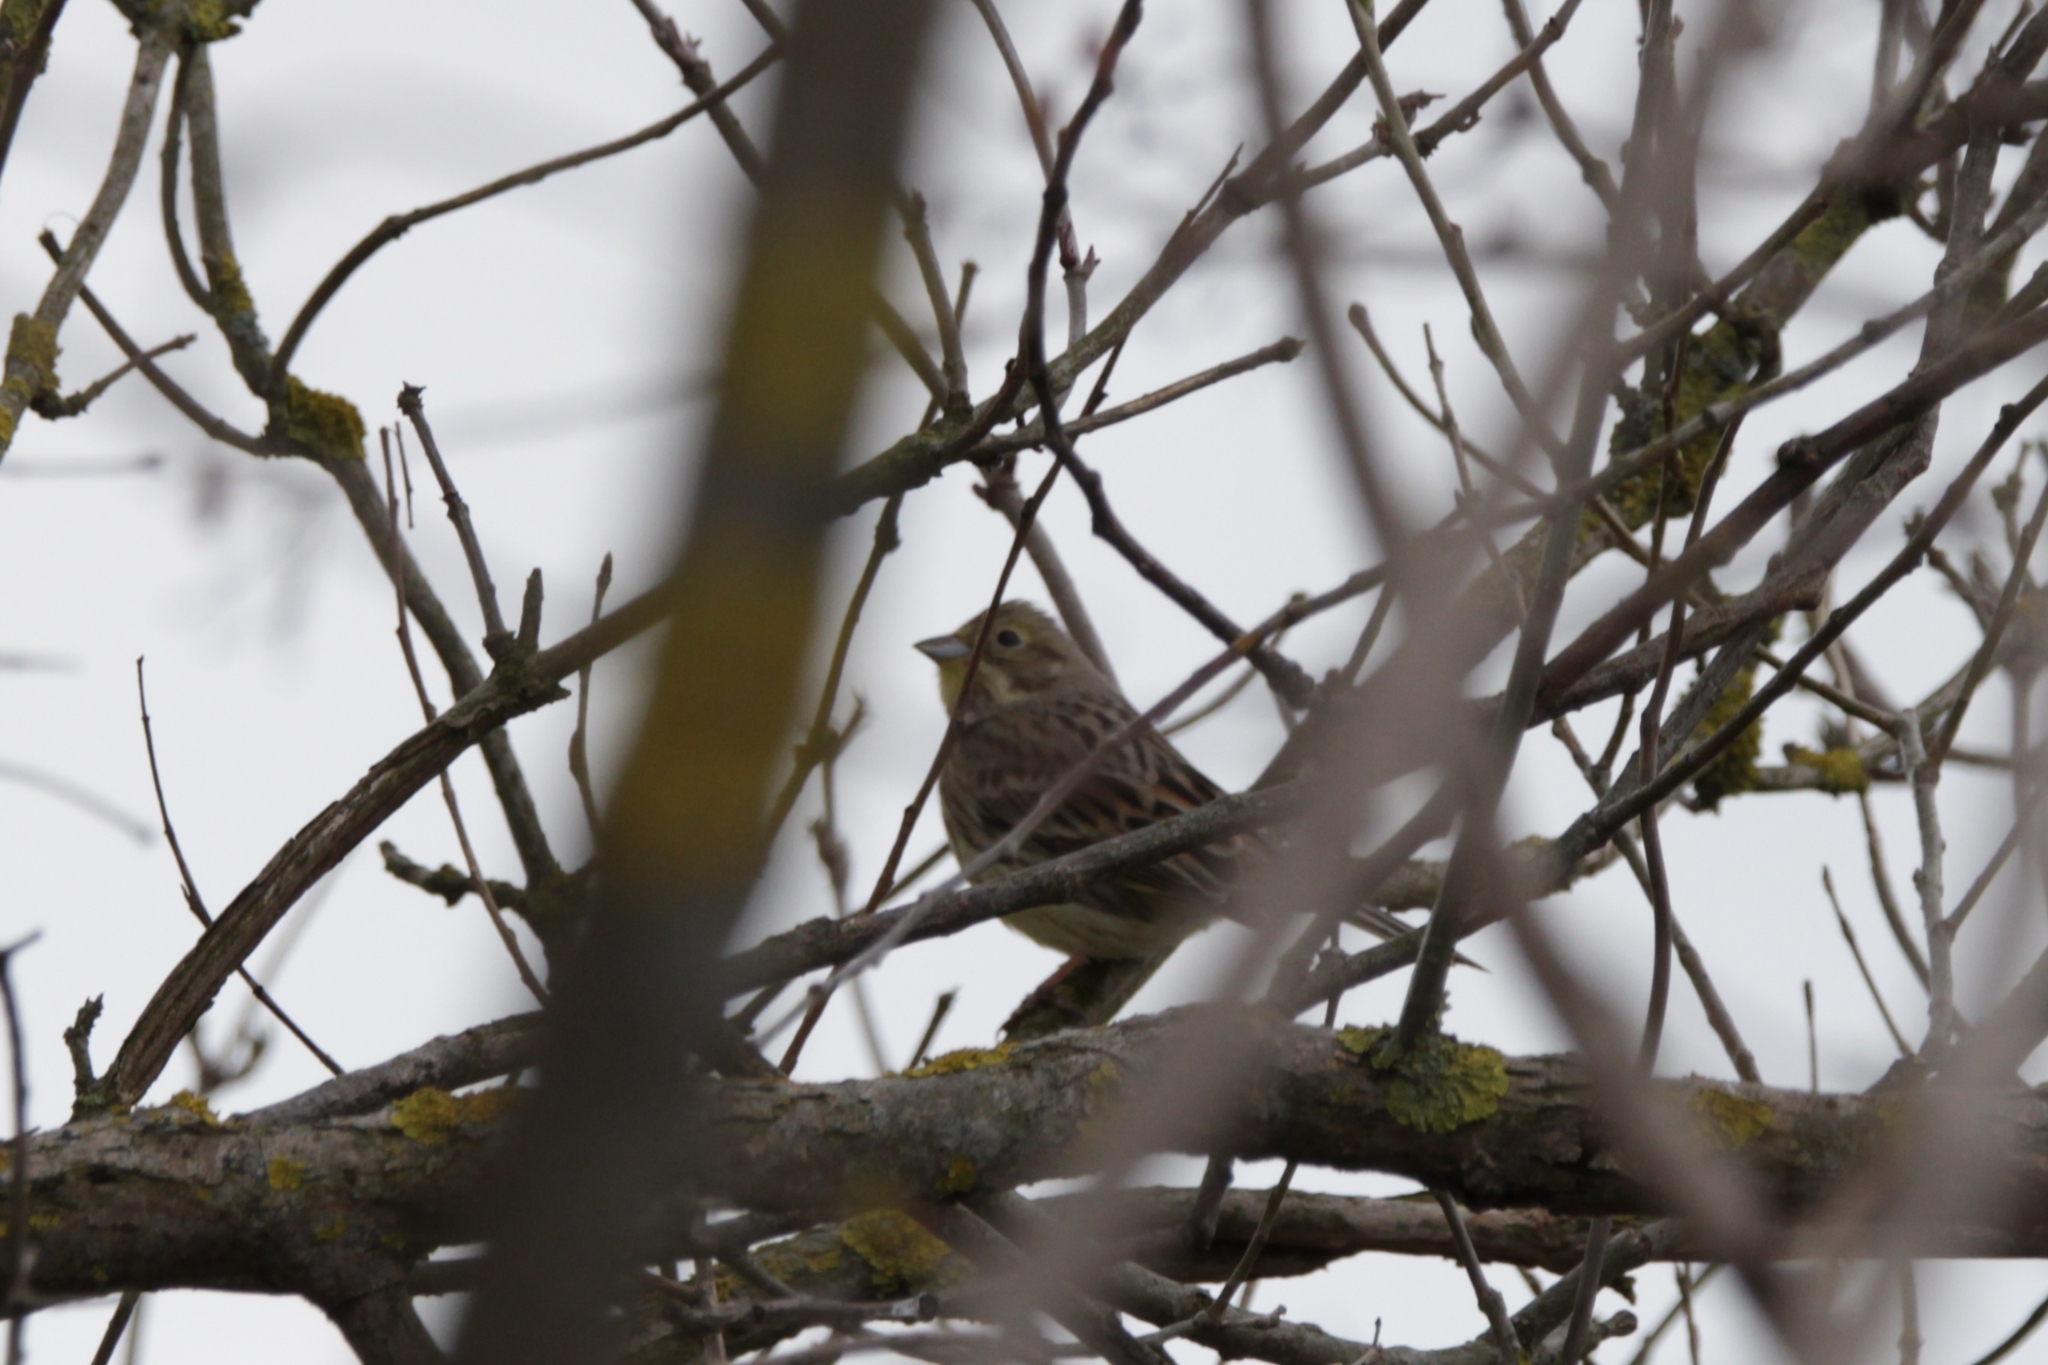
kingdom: Animalia
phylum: Chordata
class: Aves
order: Passeriformes
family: Emberizidae
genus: Emberiza
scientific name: Emberiza citrinella
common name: Yellowhammer
